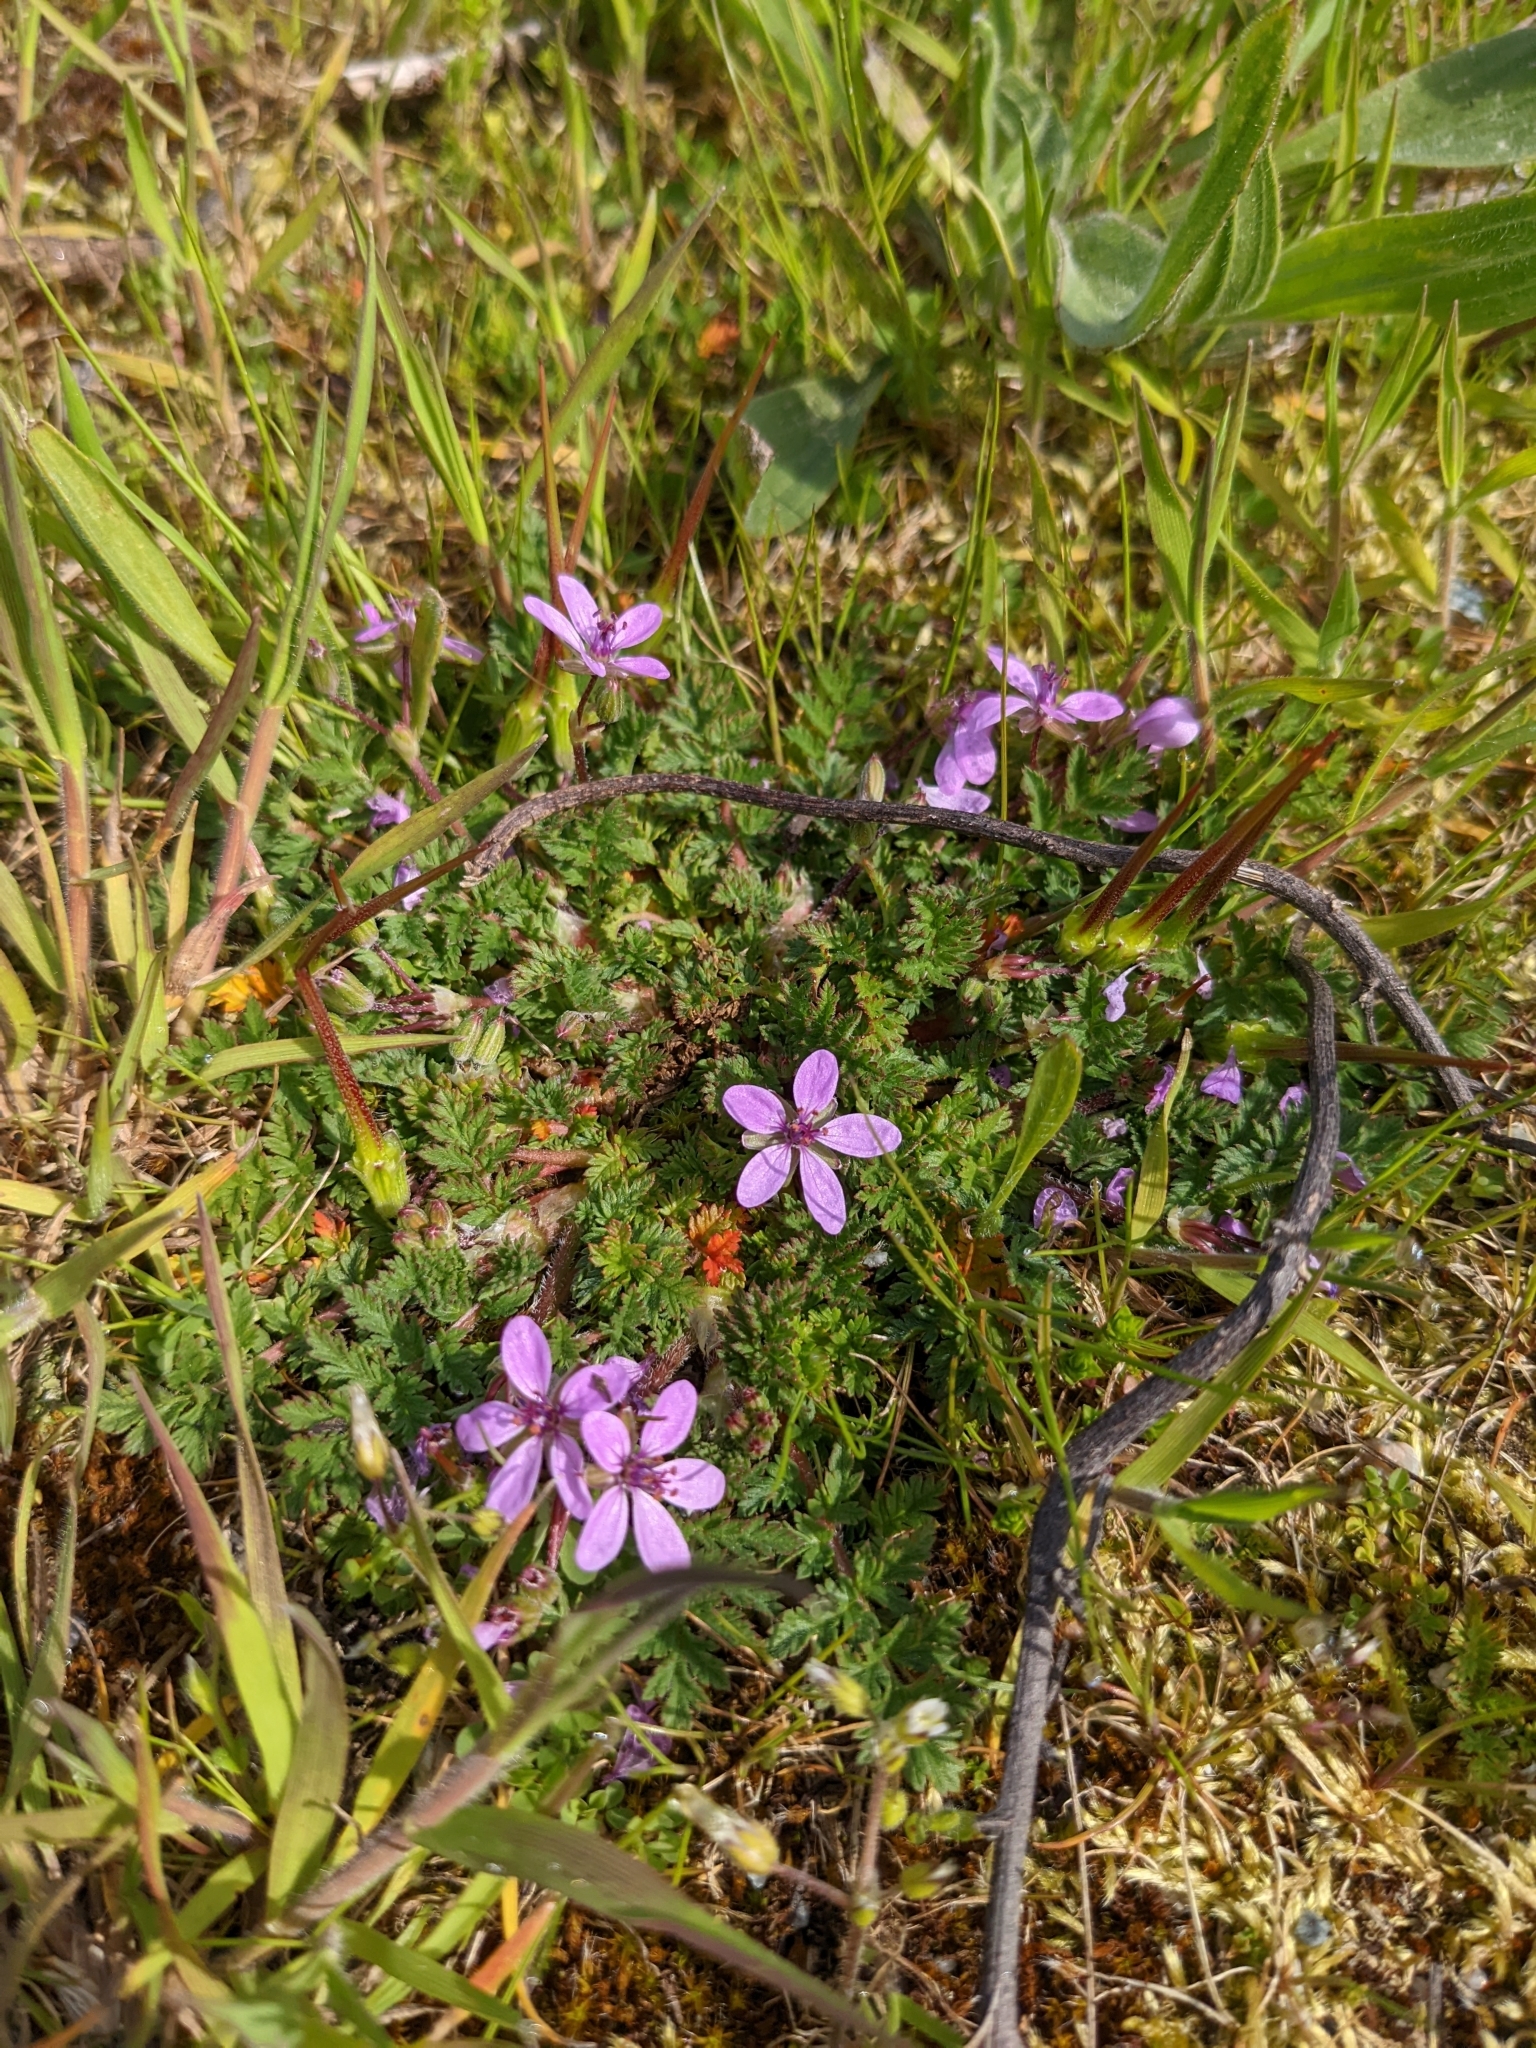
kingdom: Plantae
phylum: Tracheophyta
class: Magnoliopsida
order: Geraniales
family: Geraniaceae
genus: Erodium
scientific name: Erodium cicutarium
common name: Common stork's-bill
